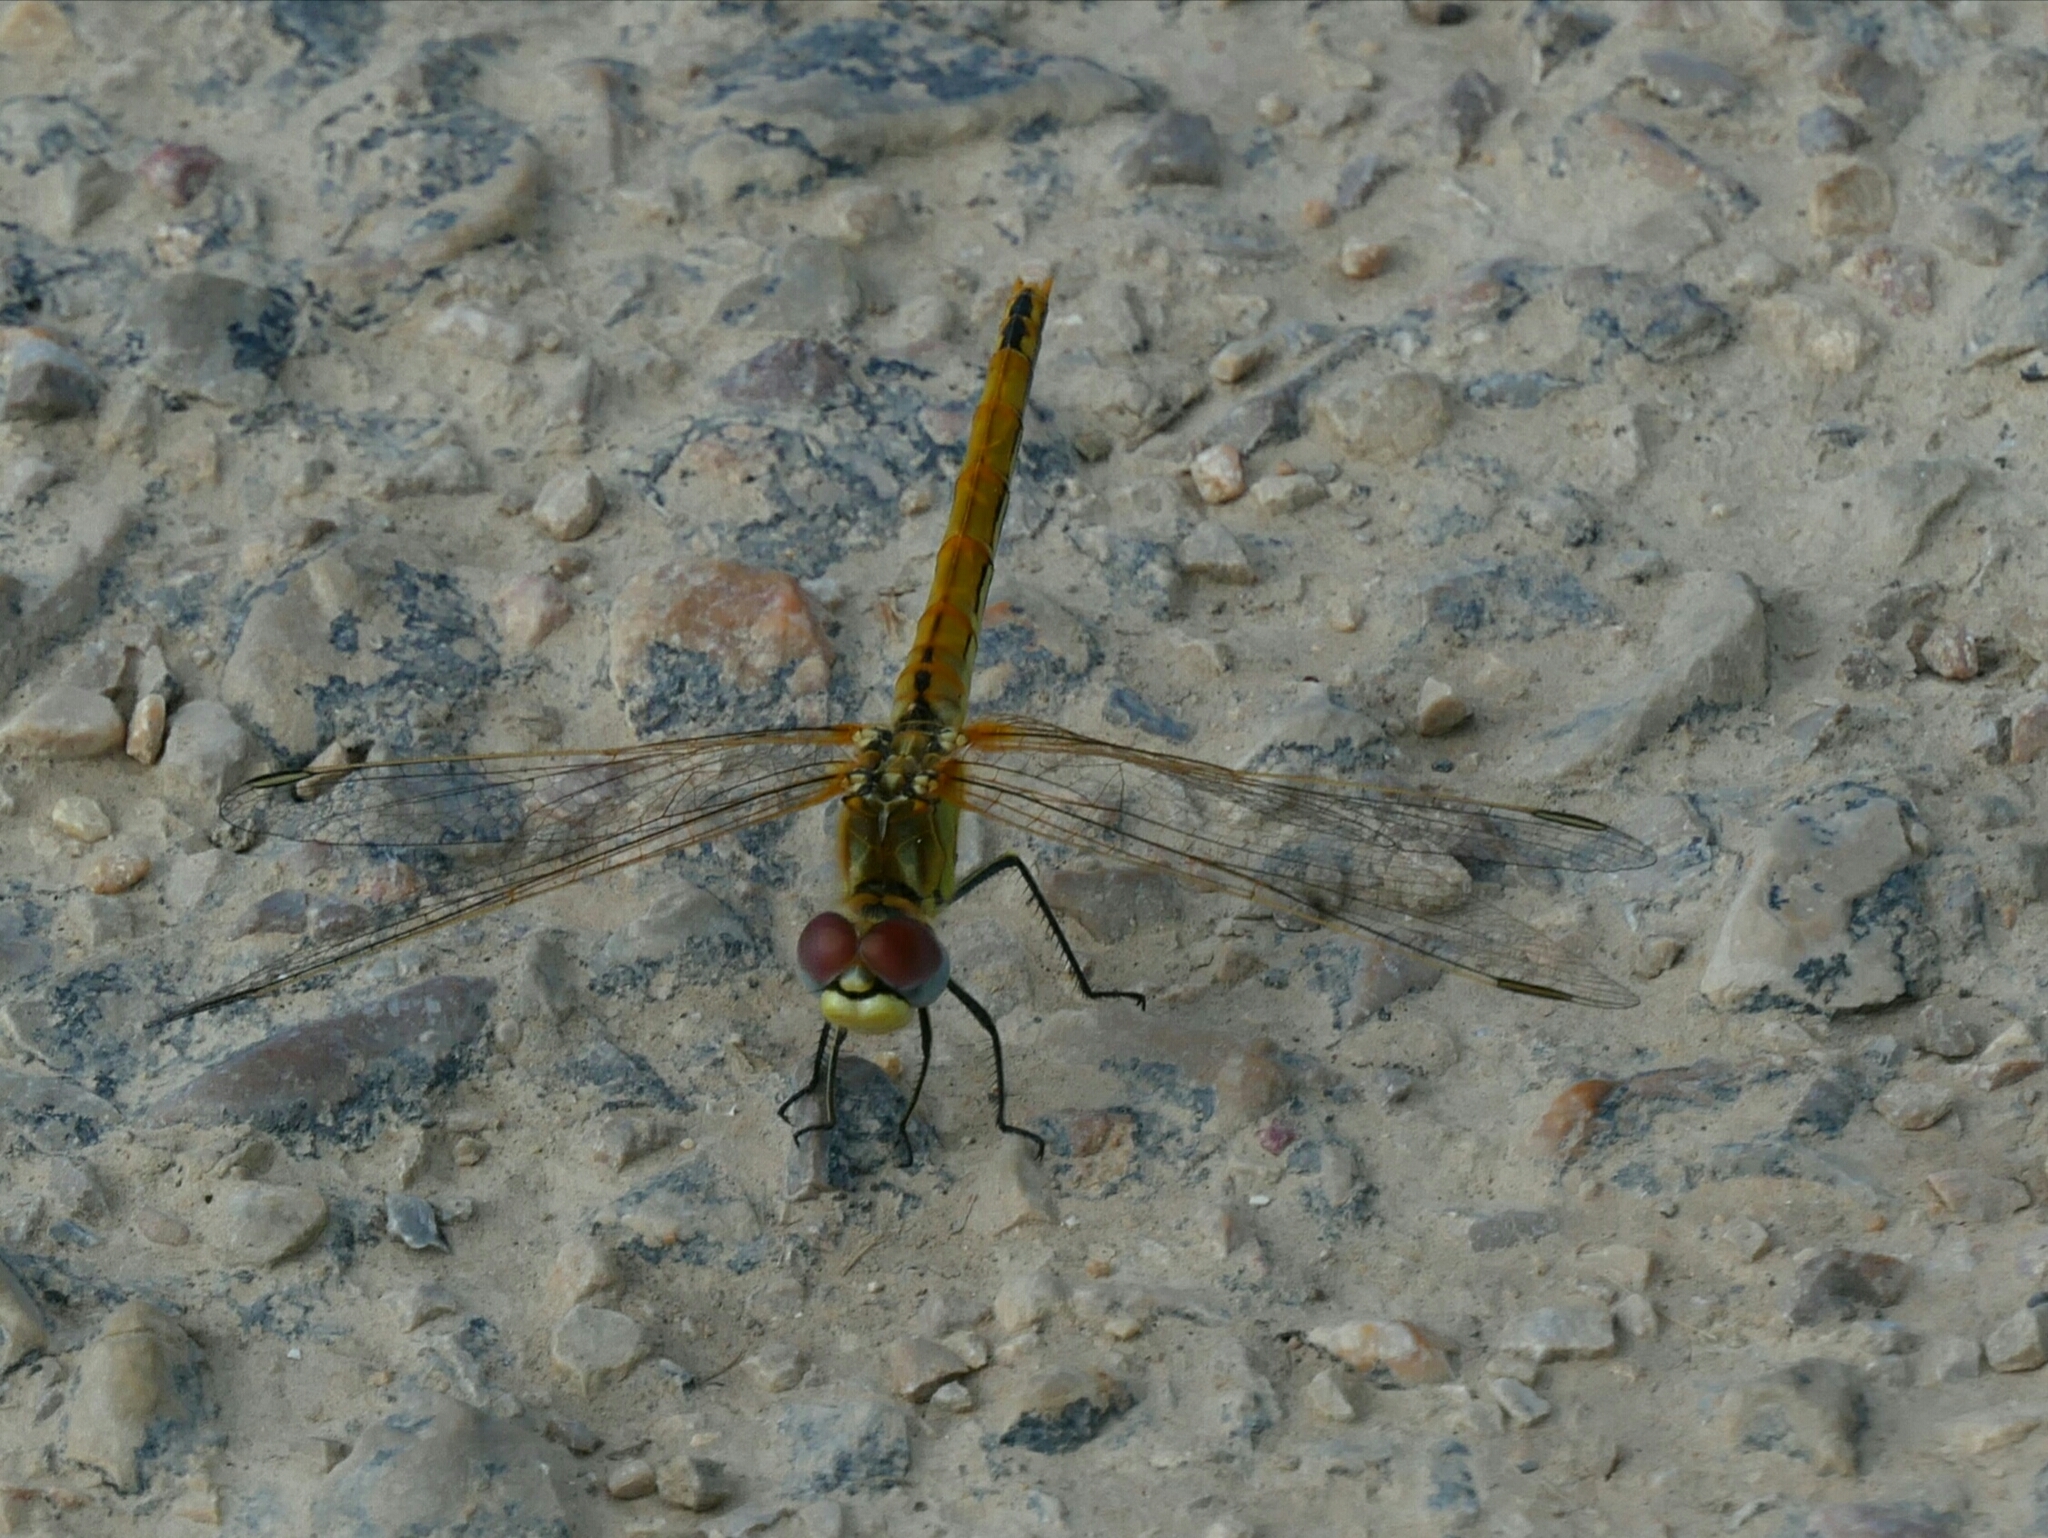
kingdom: Animalia
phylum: Arthropoda
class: Insecta
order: Odonata
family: Libellulidae
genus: Sympetrum
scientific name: Sympetrum fonscolombii
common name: Red-veined darter
